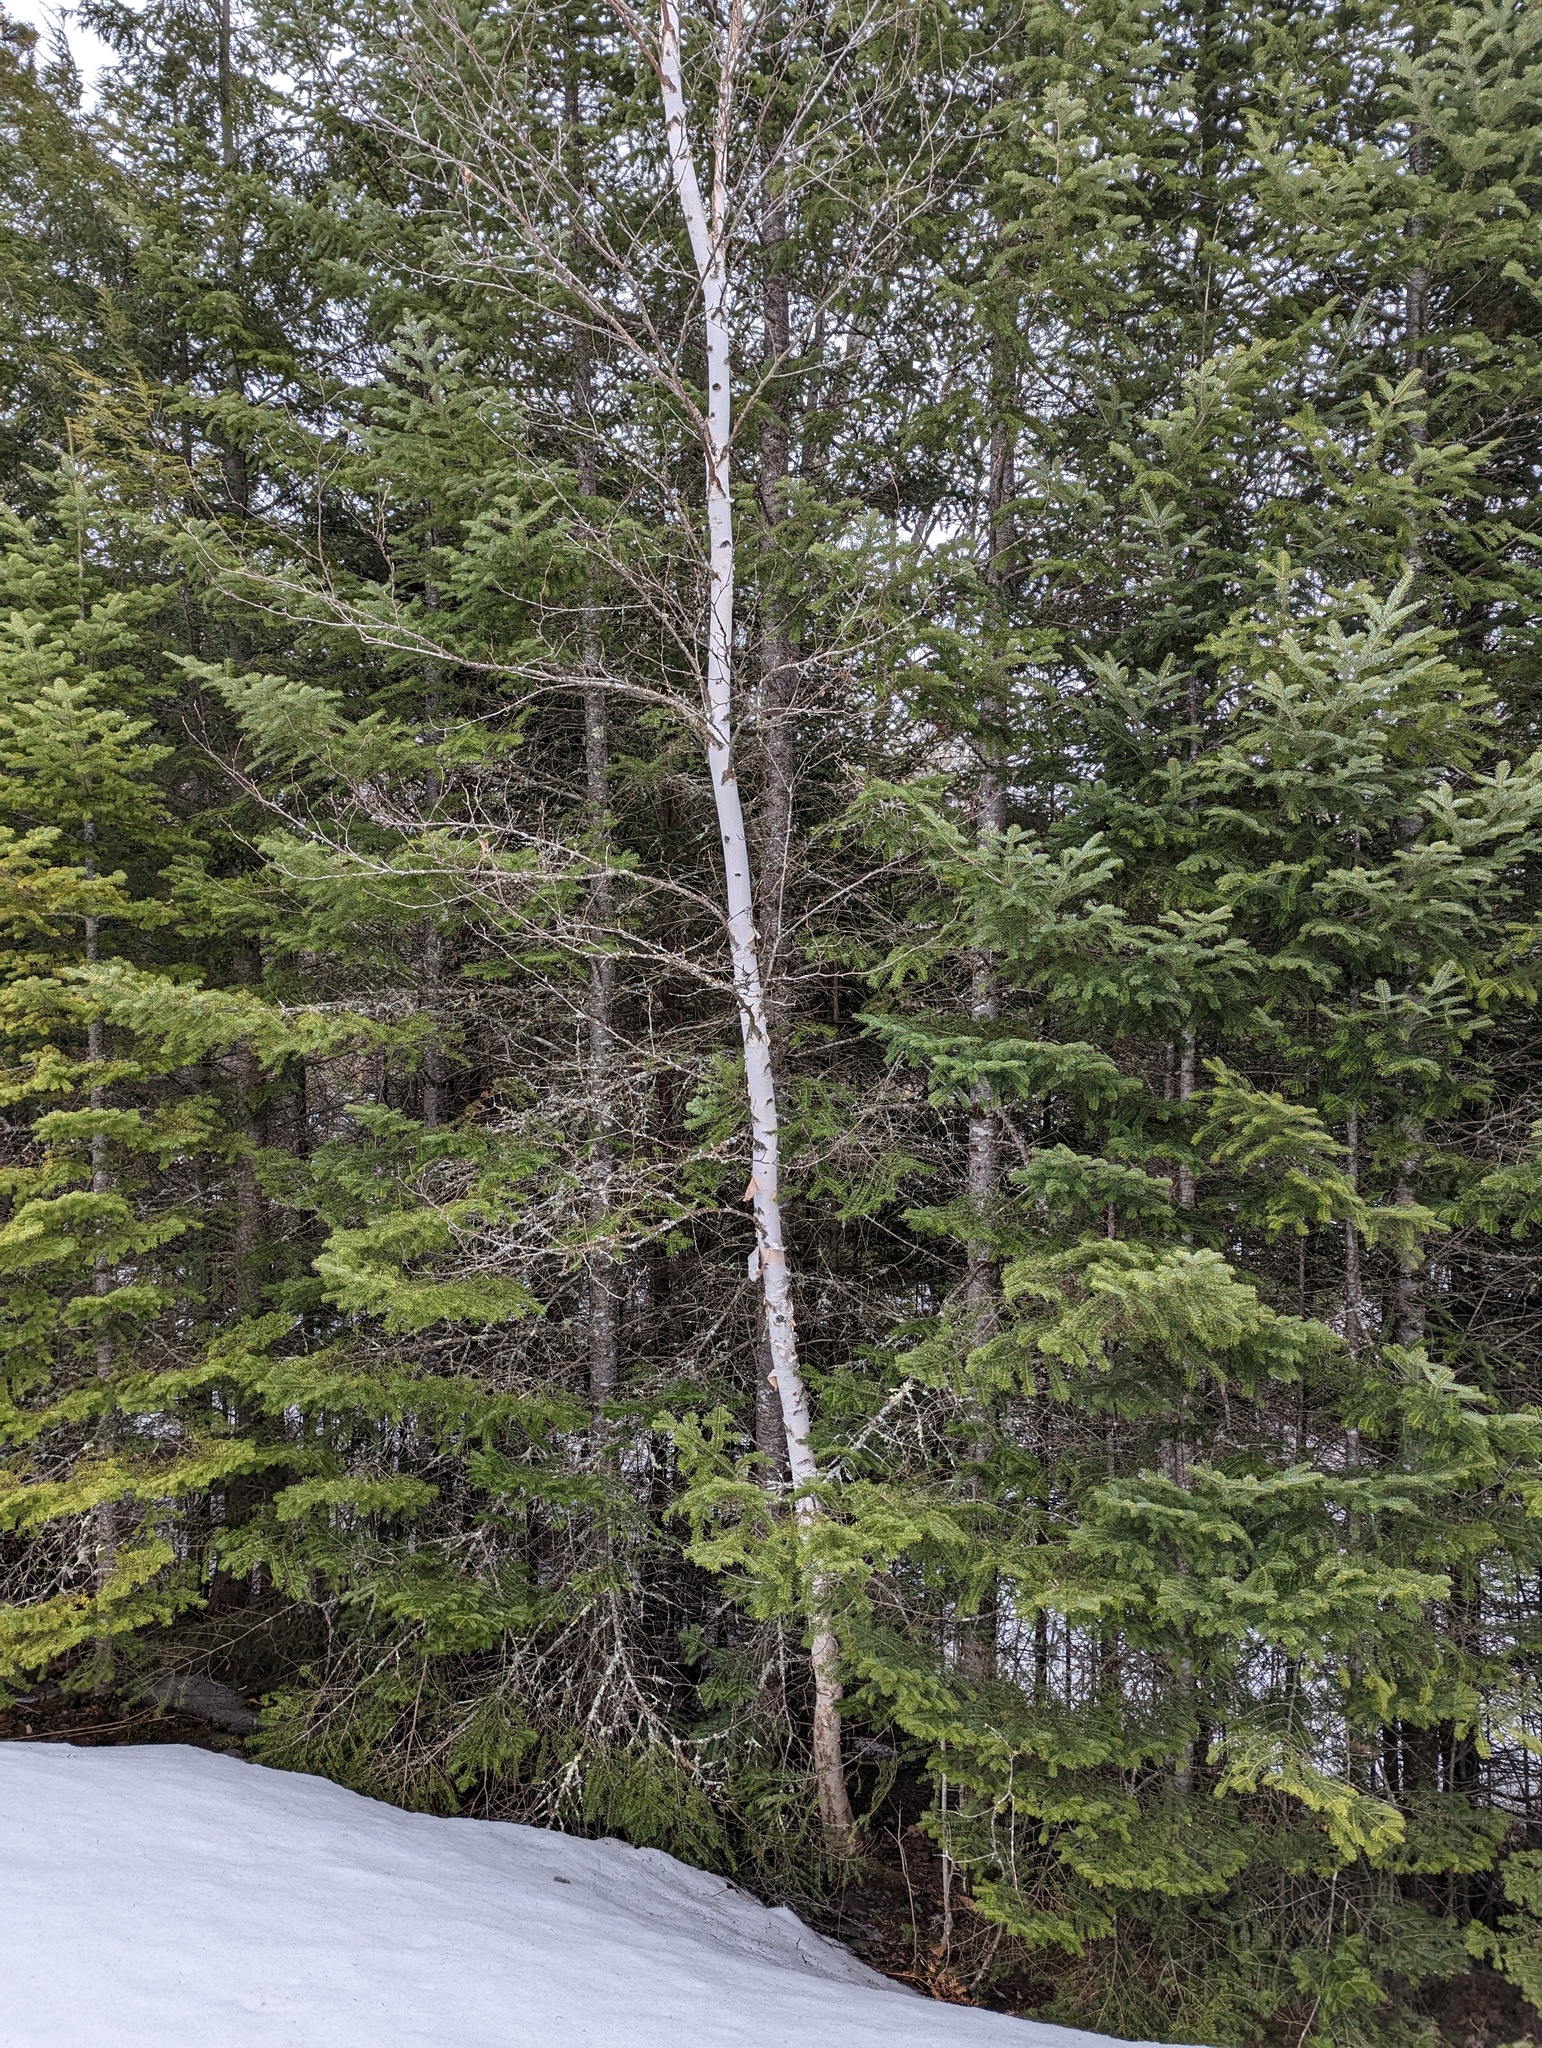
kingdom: Plantae
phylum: Tracheophyta
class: Magnoliopsida
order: Fagales
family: Betulaceae
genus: Betula
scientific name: Betula papyrifera
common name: Paper birch
